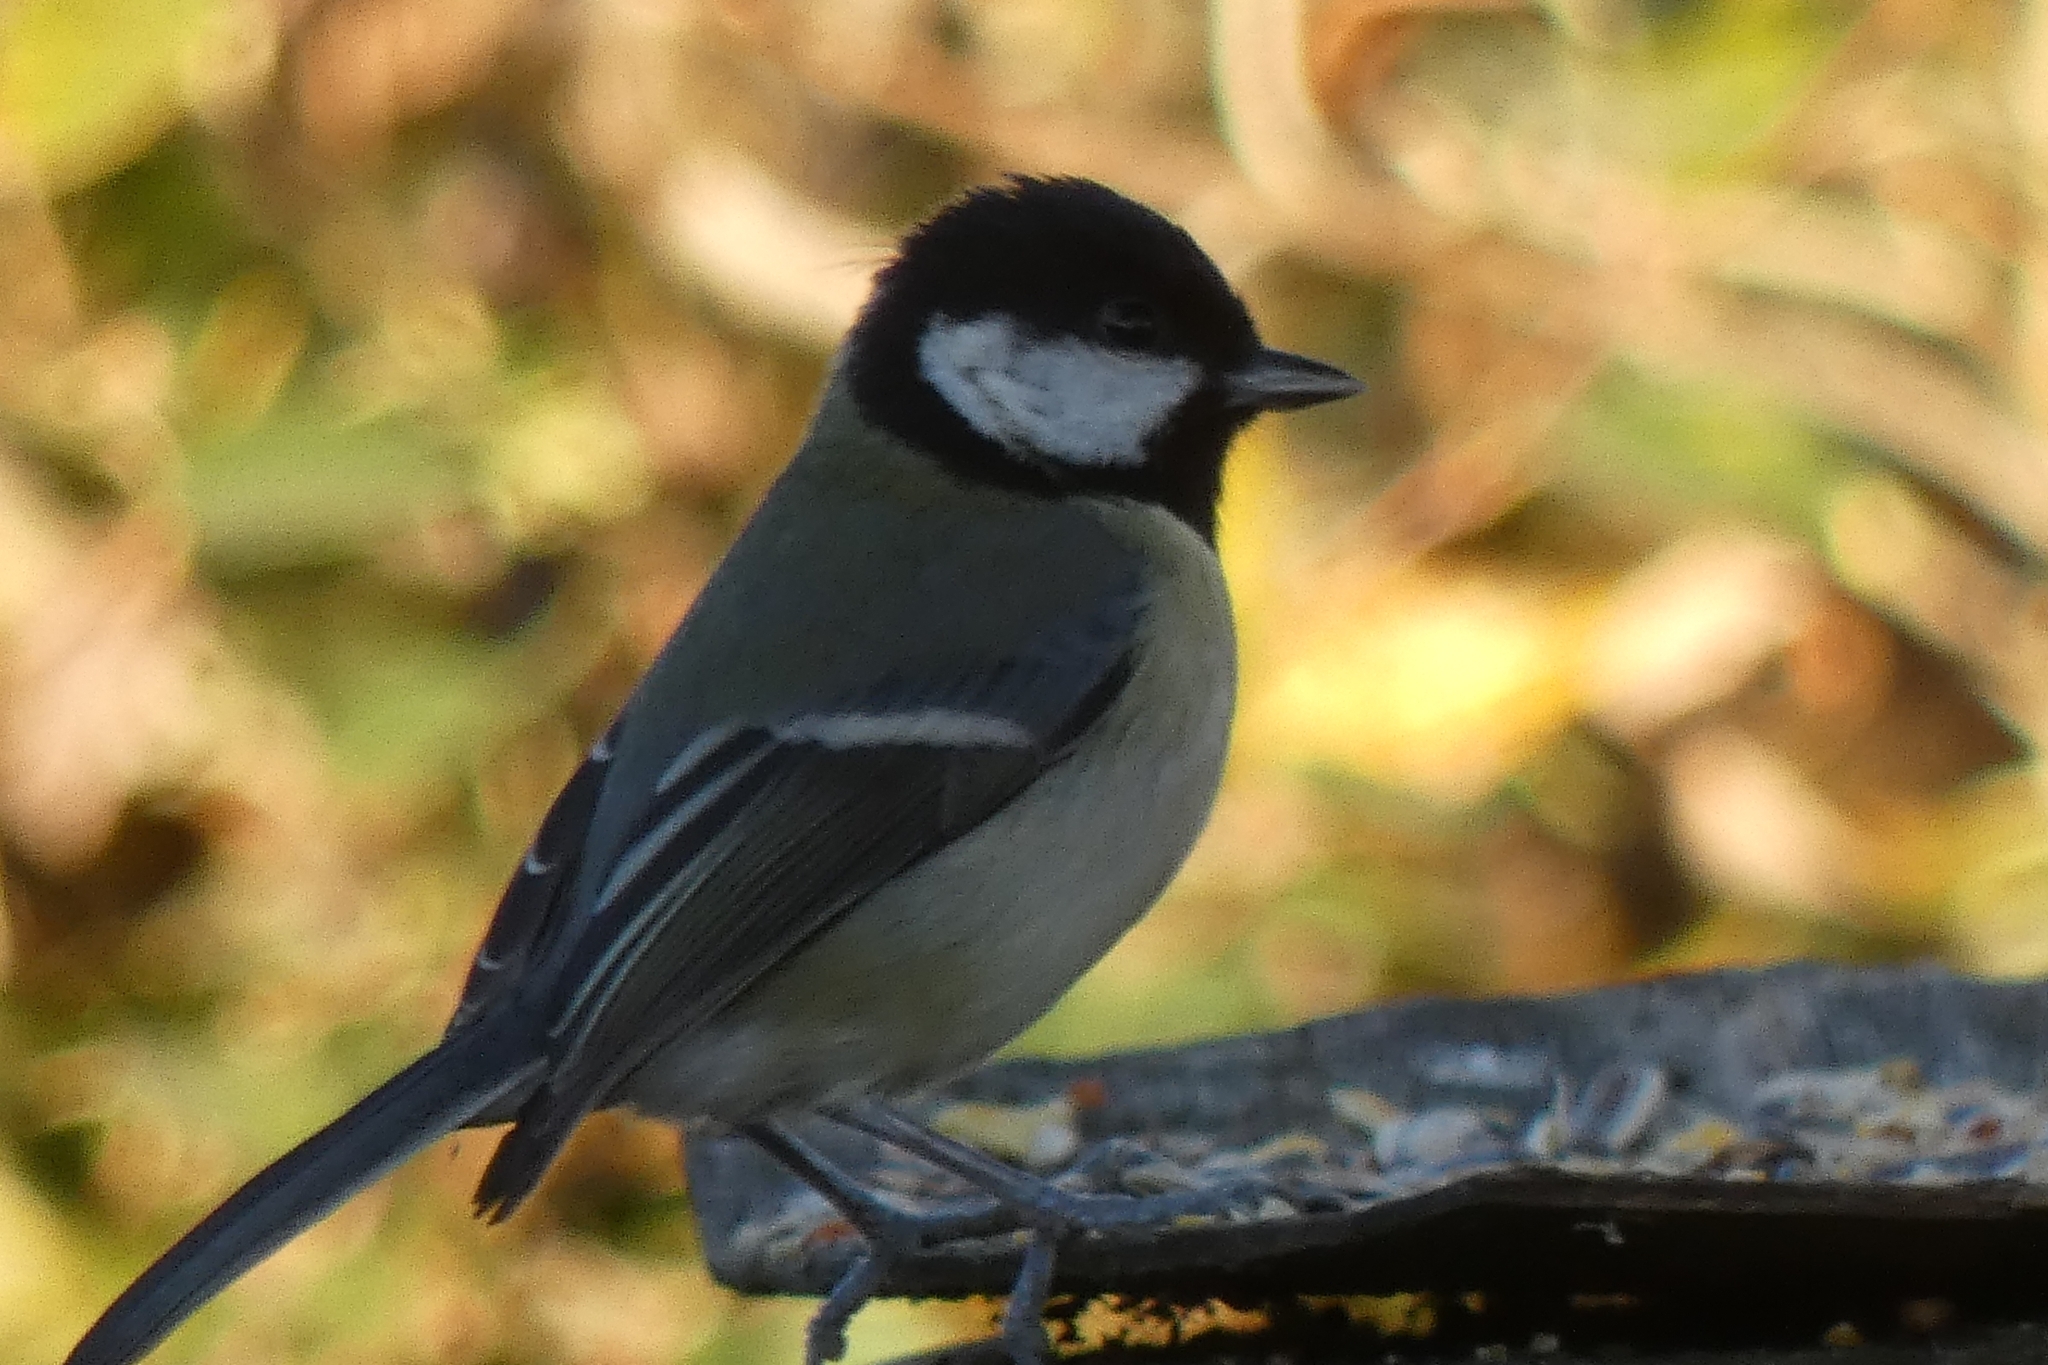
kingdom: Animalia
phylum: Chordata
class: Aves
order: Passeriformes
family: Paridae
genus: Parus
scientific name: Parus major
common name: Great tit
